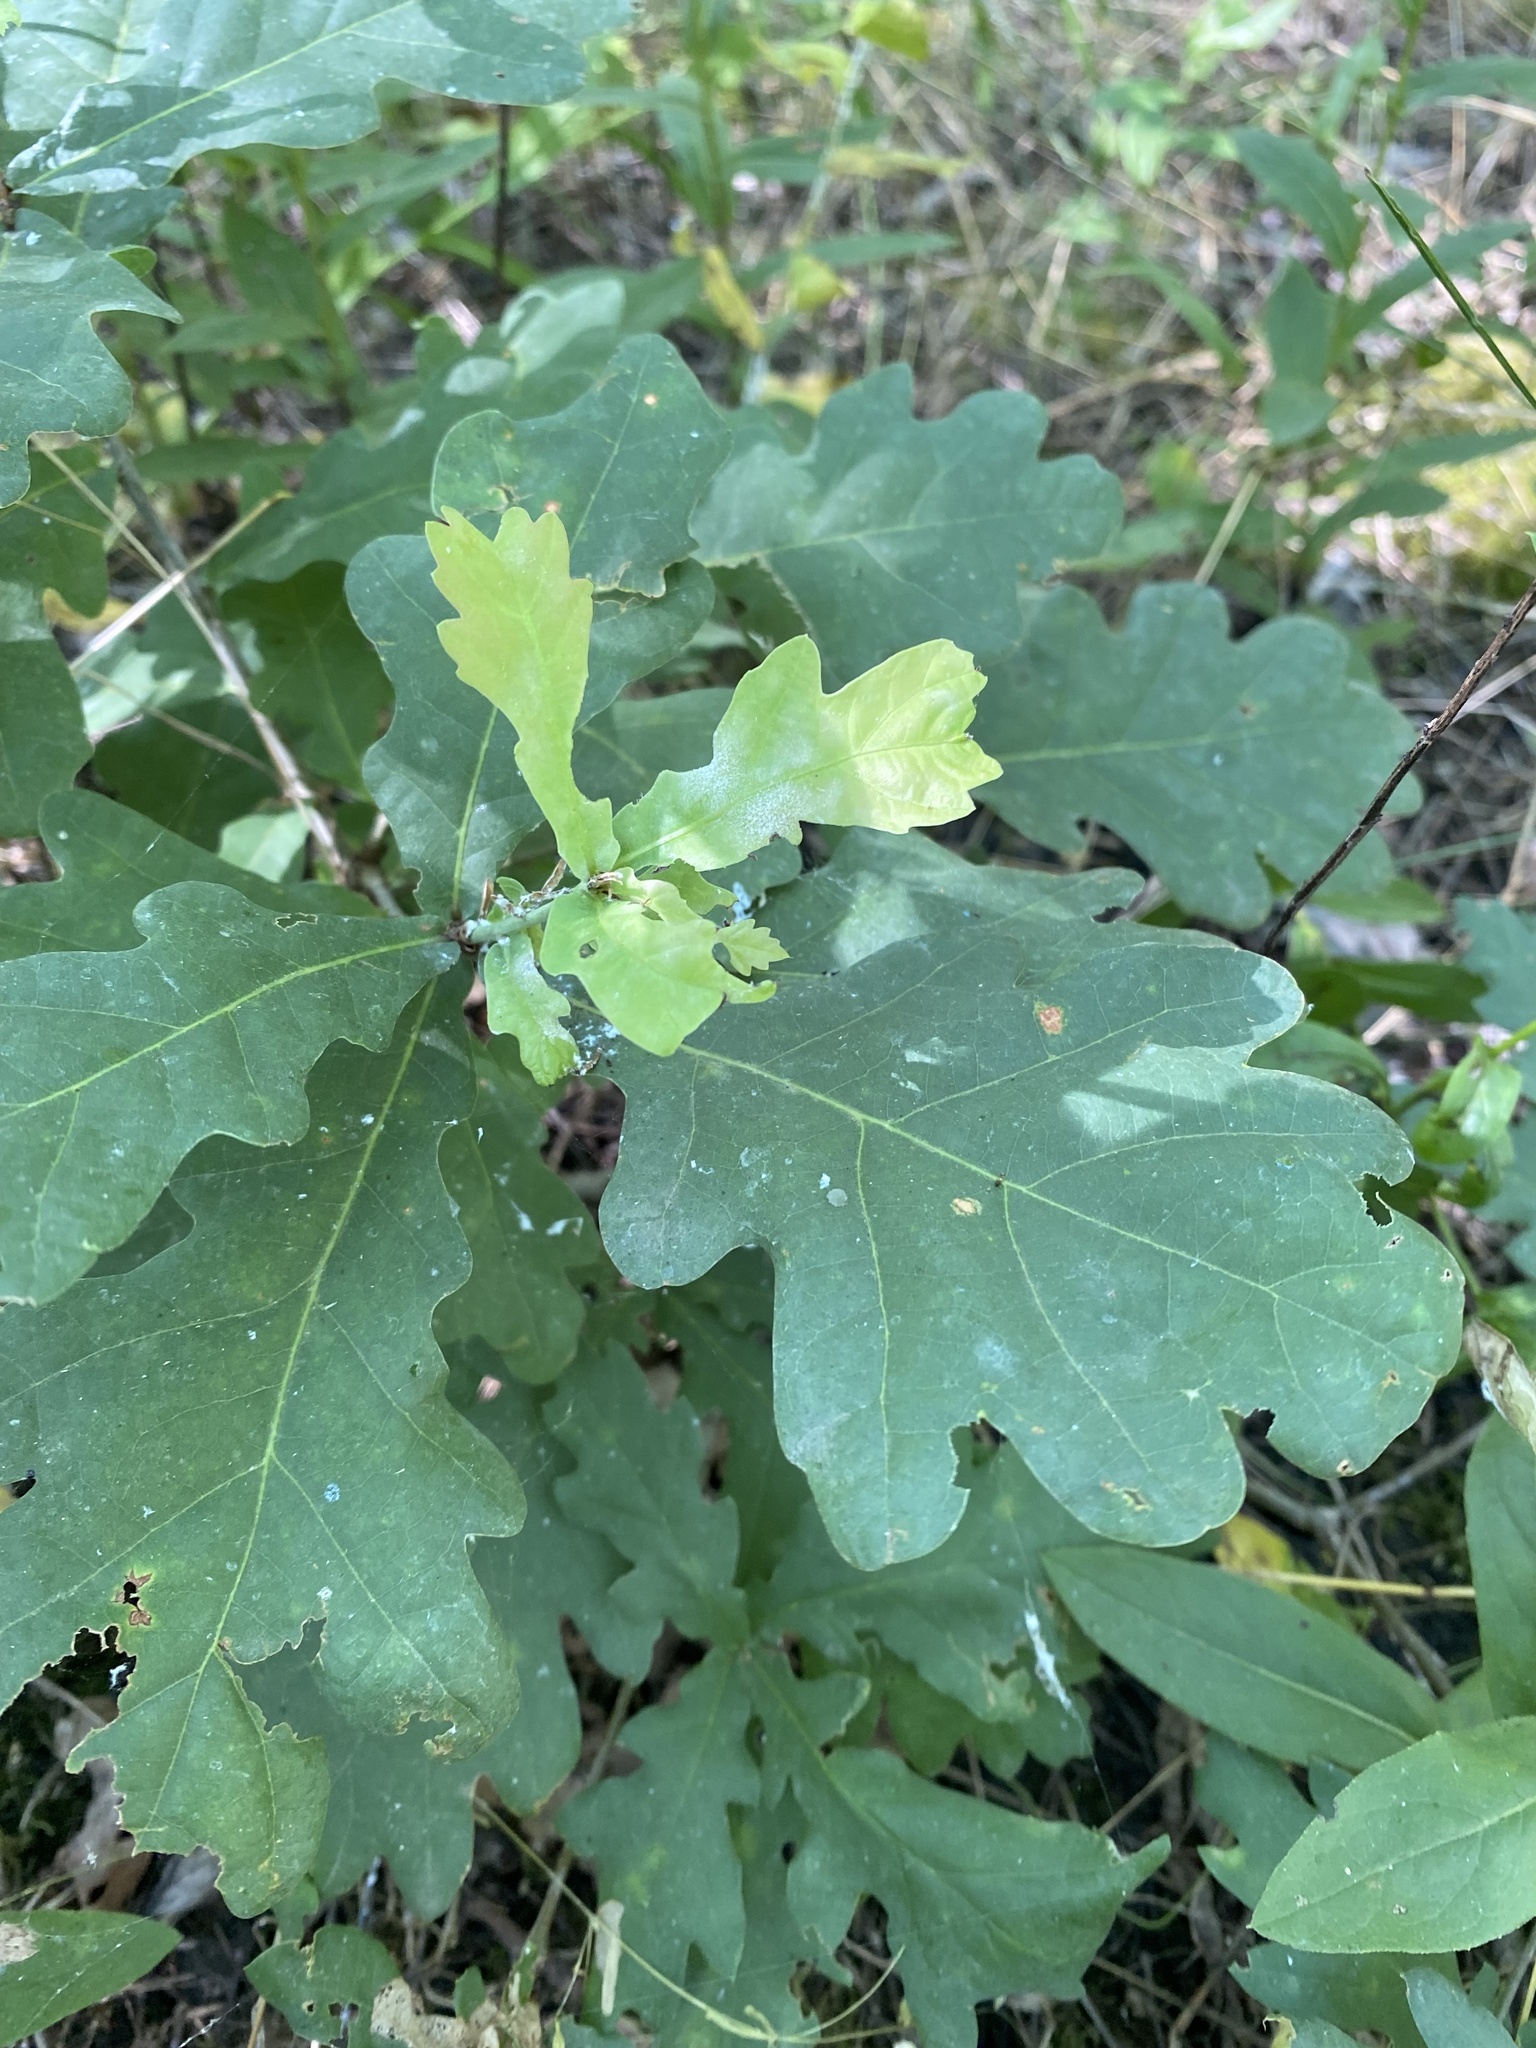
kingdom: Plantae
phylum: Tracheophyta
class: Magnoliopsida
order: Fagales
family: Fagaceae
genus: Quercus
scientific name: Quercus robur
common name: Pedunculate oak
